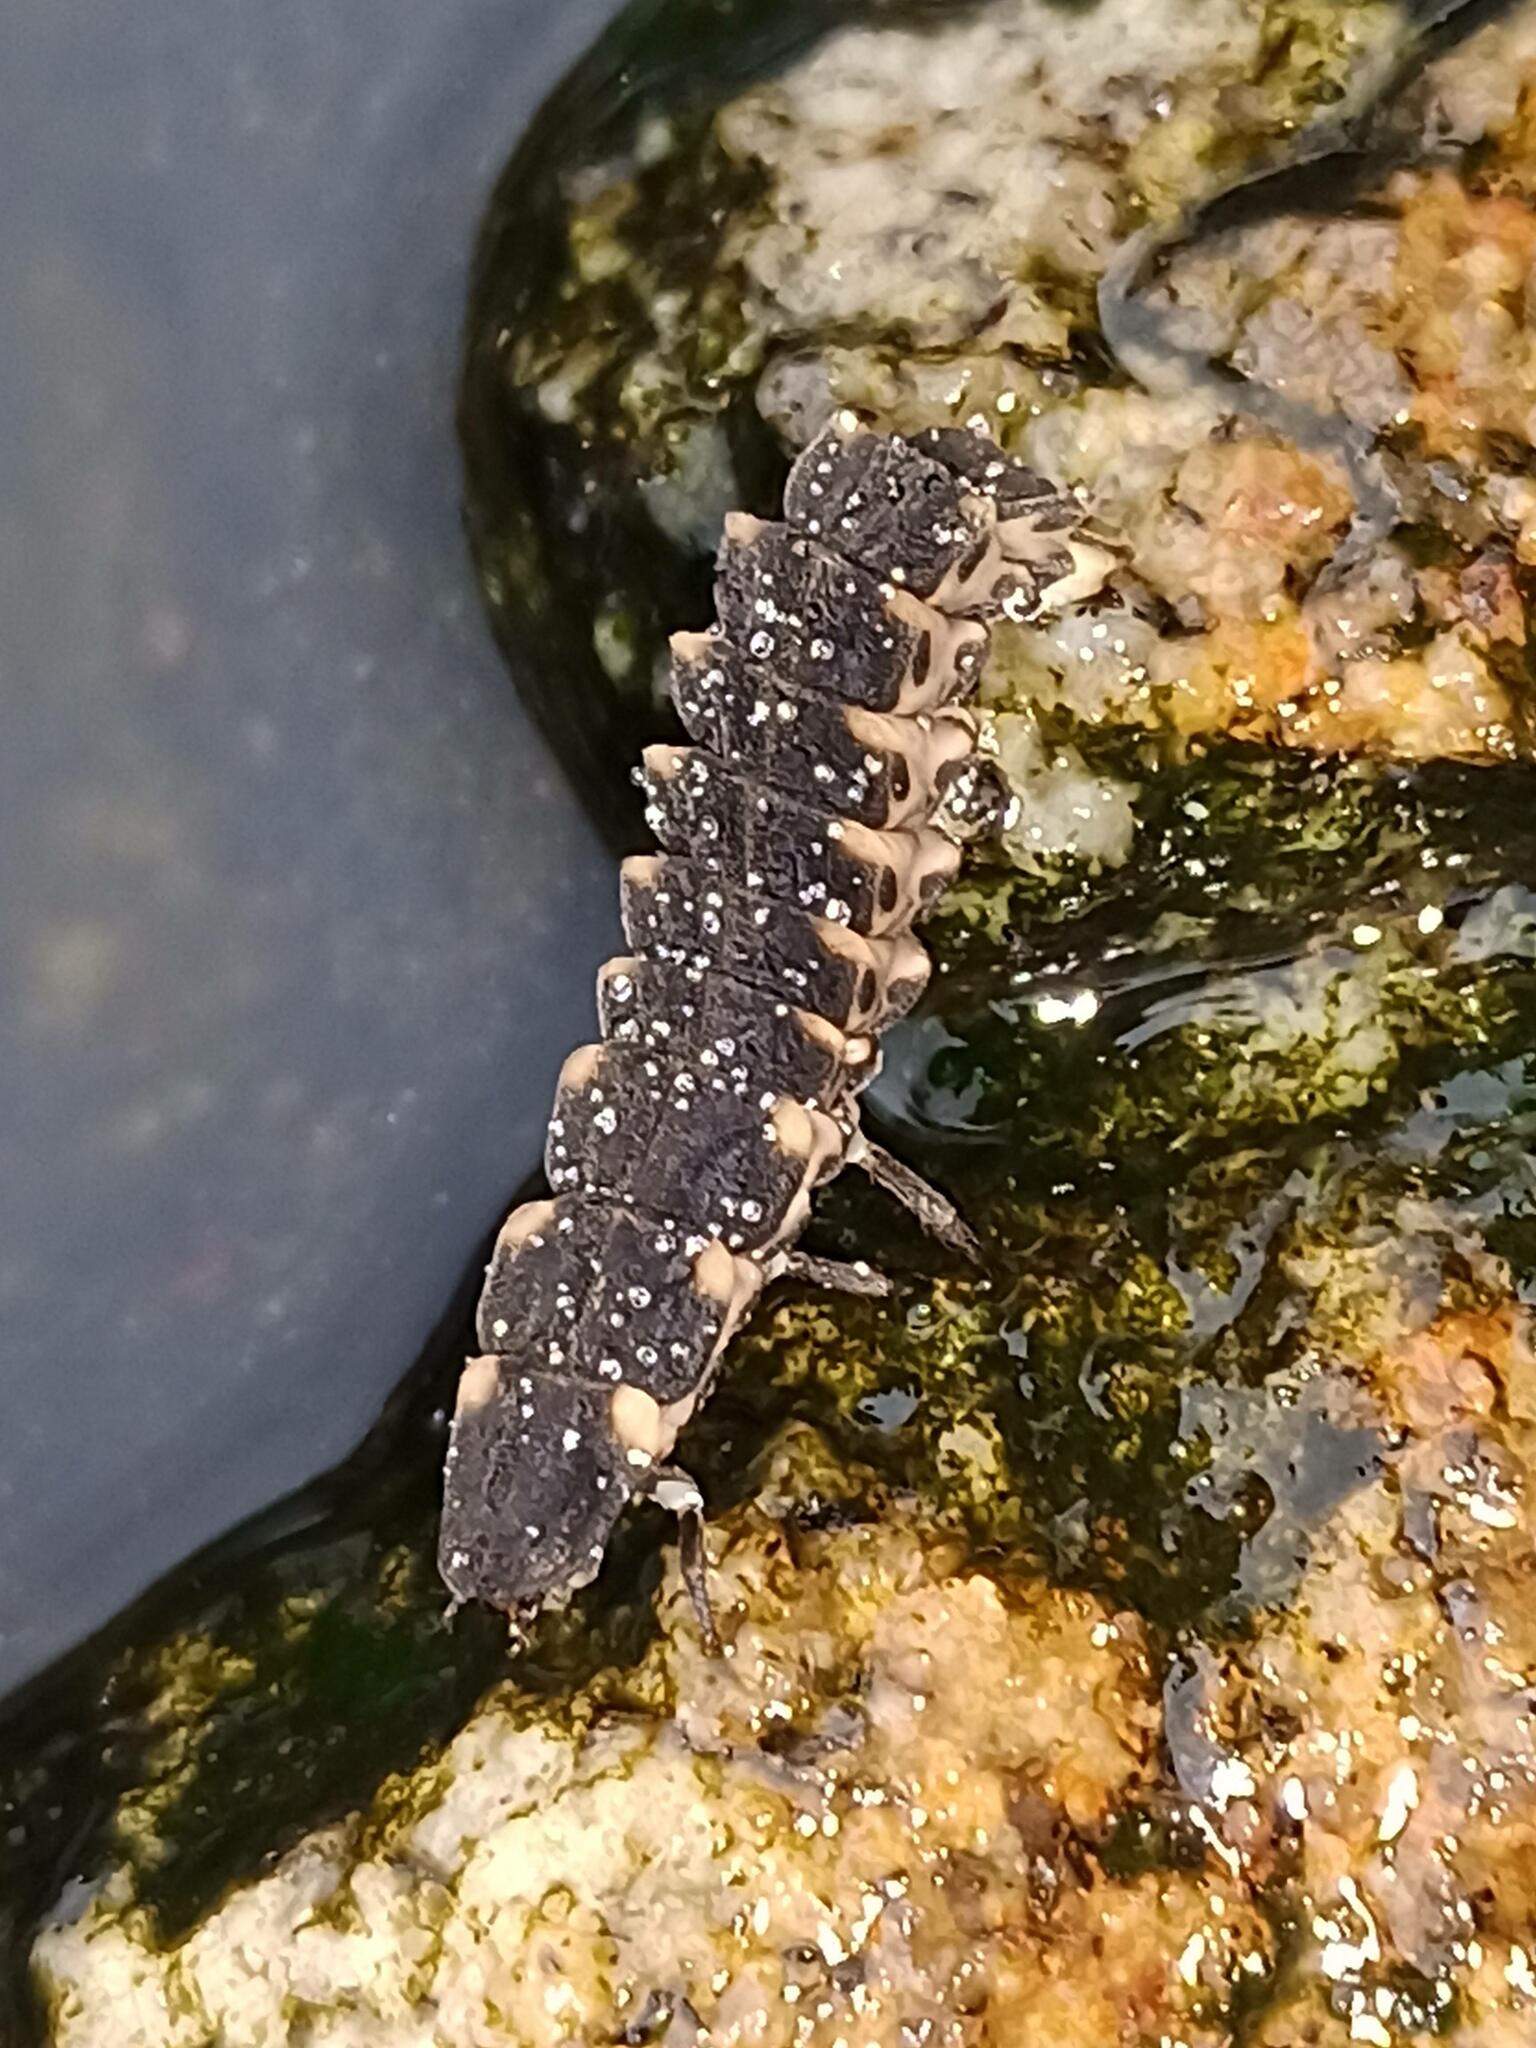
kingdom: Animalia
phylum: Arthropoda
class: Insecta
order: Coleoptera
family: Lampyridae
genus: Lampyris
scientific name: Lampyris noctiluca
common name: Glow-worm
